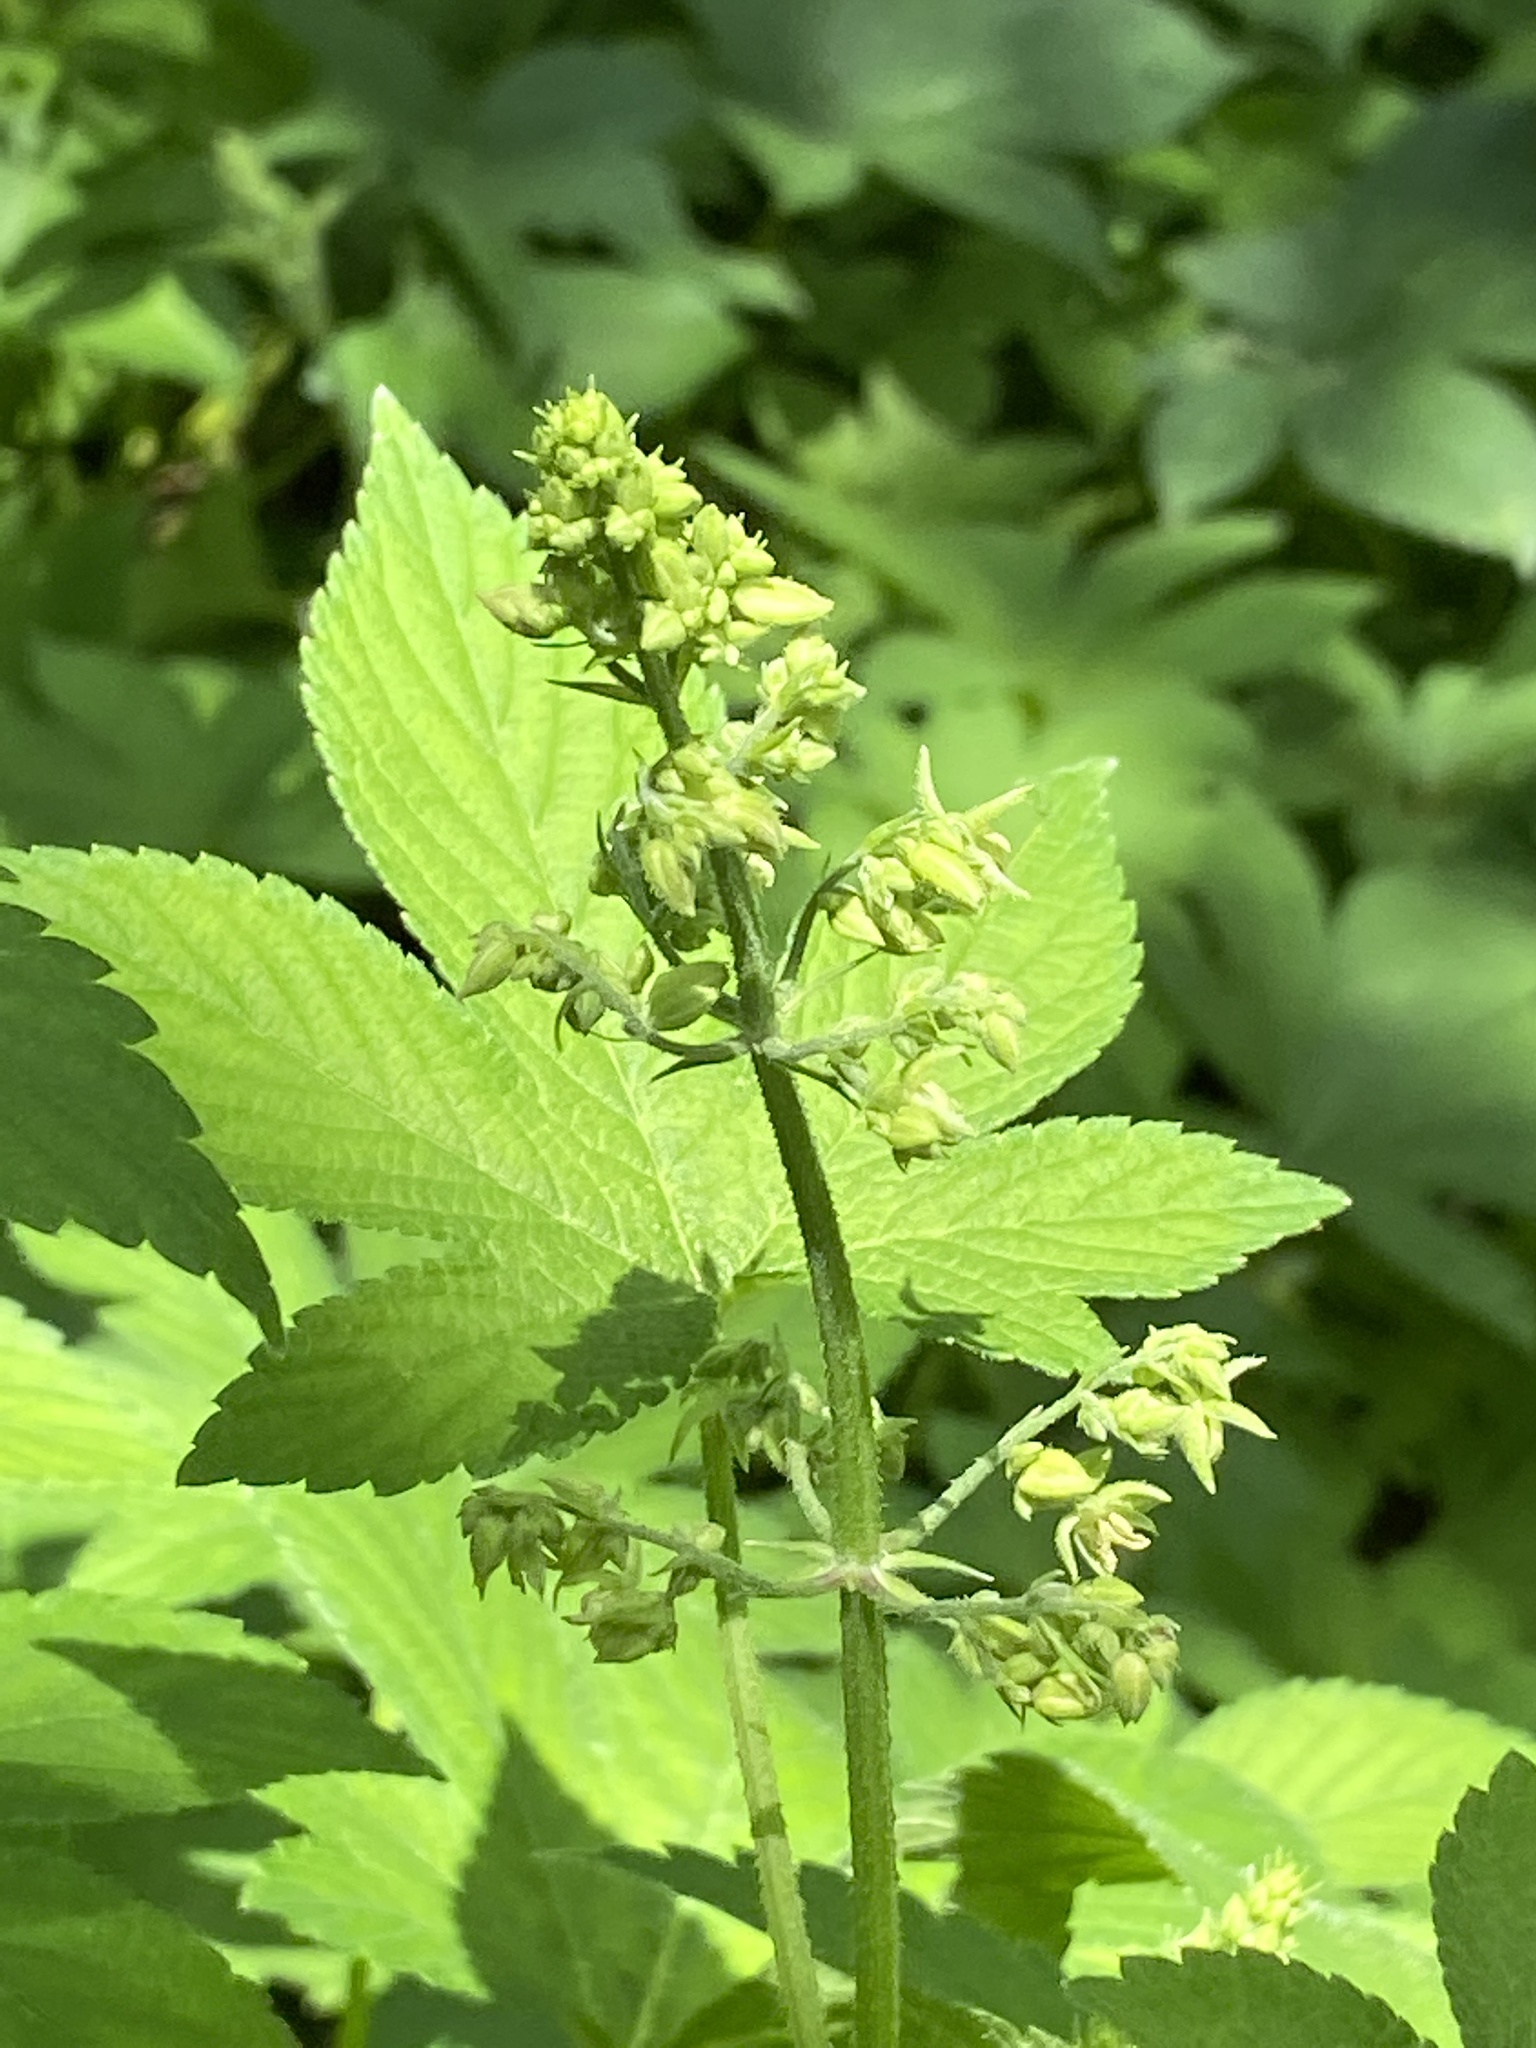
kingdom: Plantae
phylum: Tracheophyta
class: Magnoliopsida
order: Rosales
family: Cannabaceae
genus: Humulus
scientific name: Humulus scandens
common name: Japanese hop
